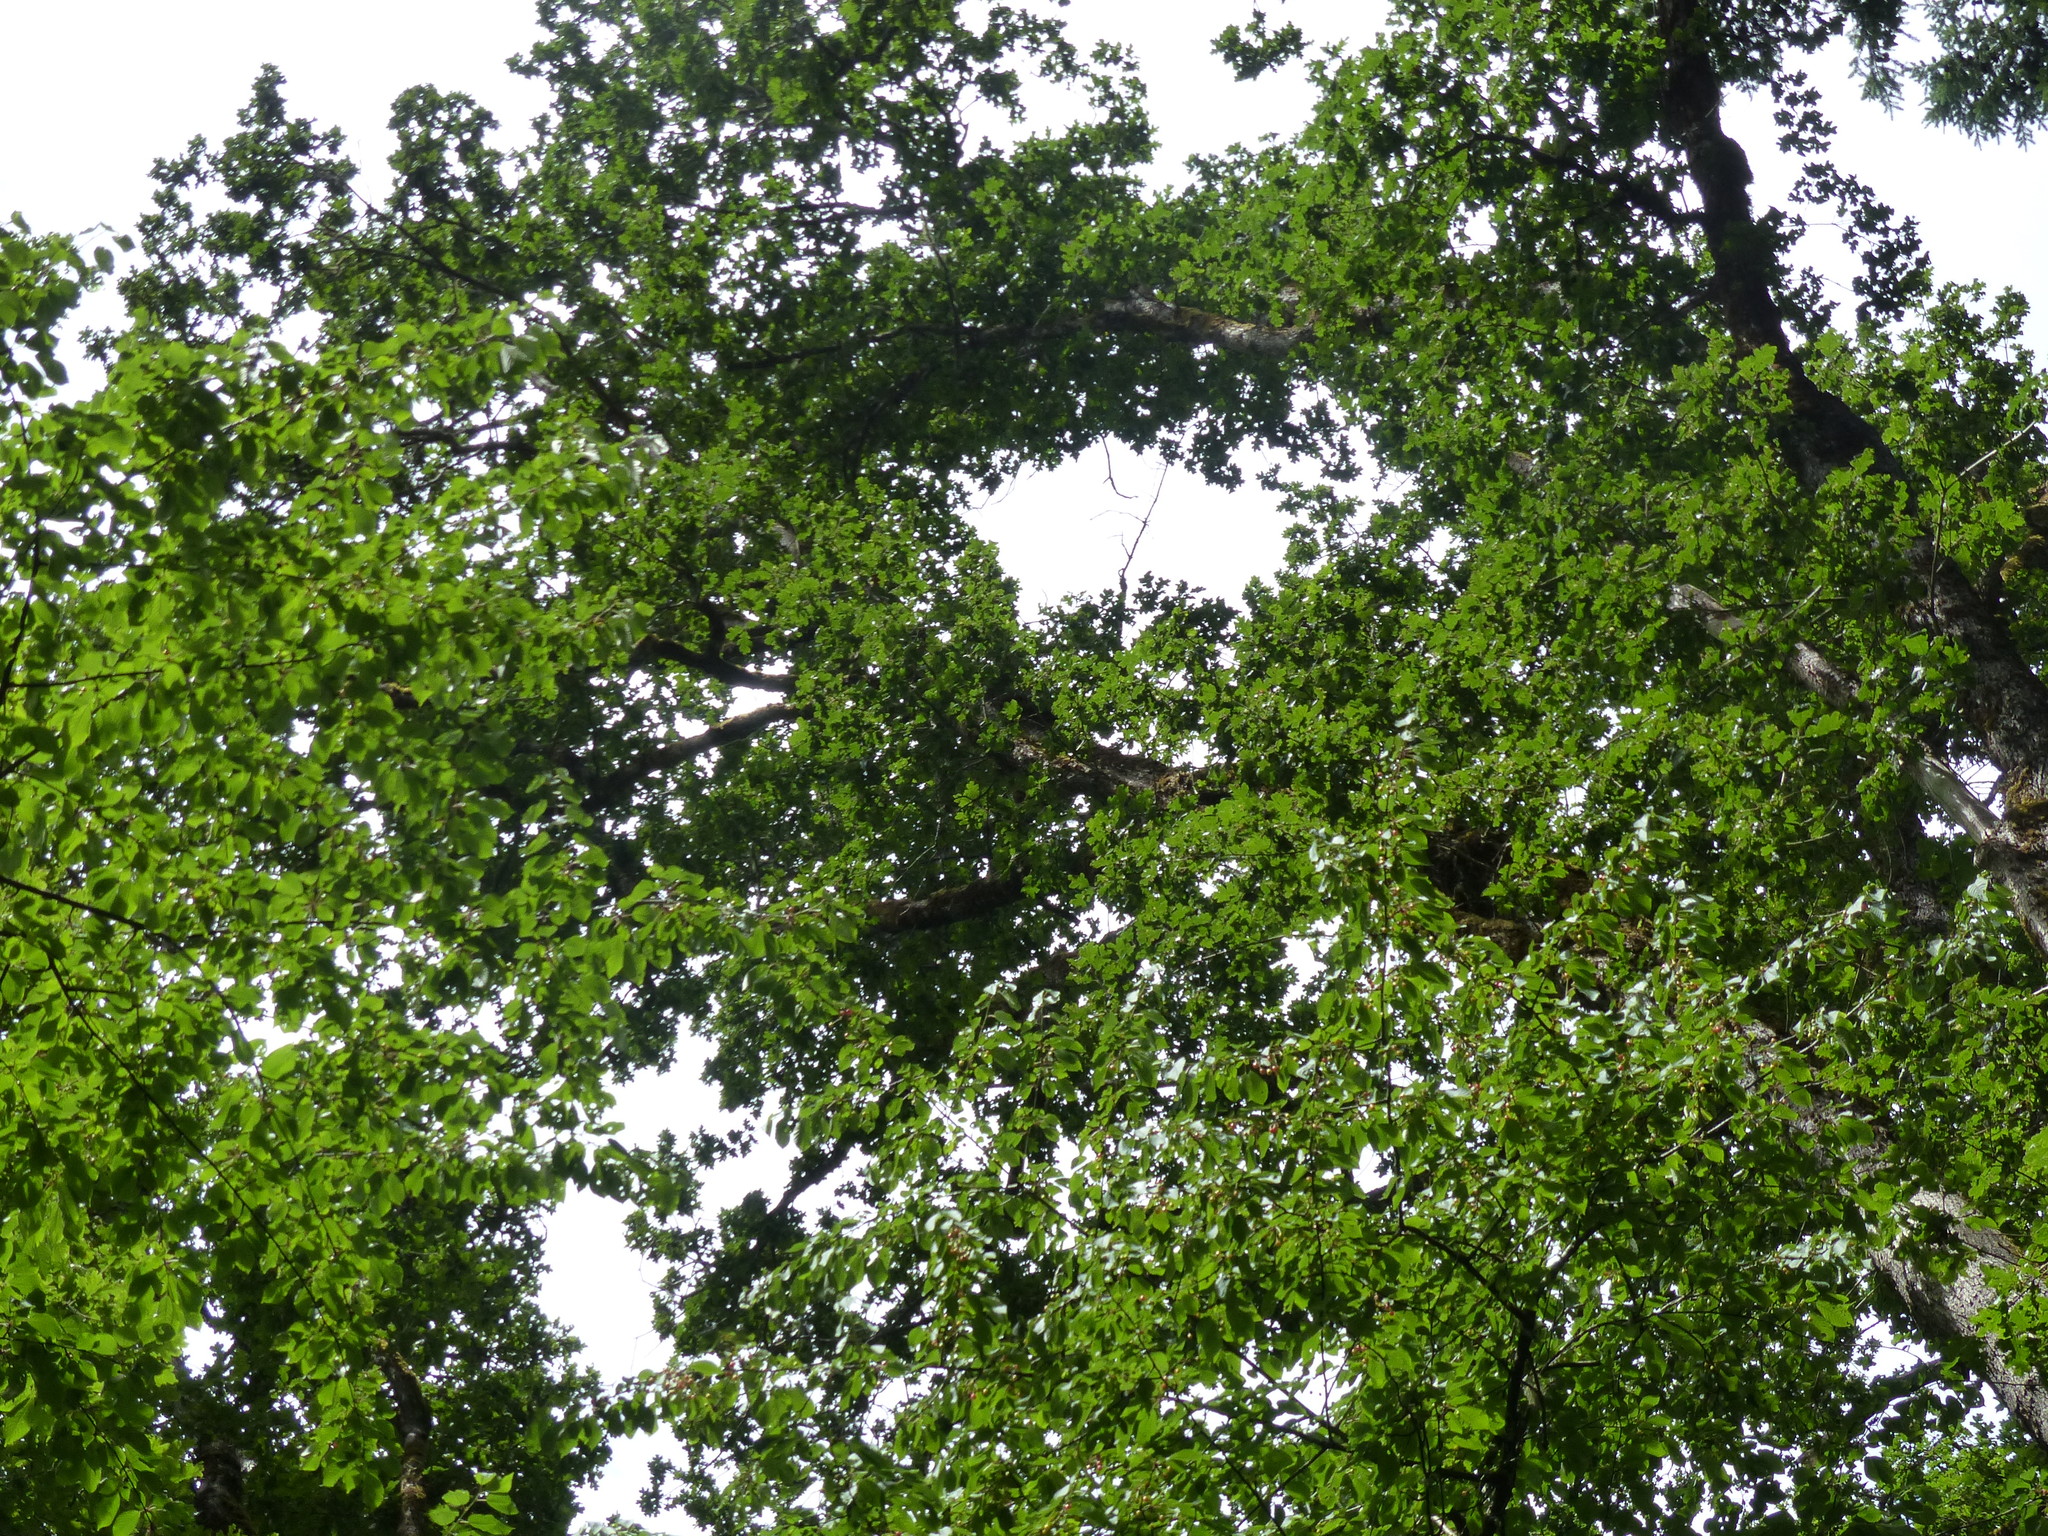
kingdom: Plantae
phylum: Tracheophyta
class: Magnoliopsida
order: Fagales
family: Fagaceae
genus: Quercus
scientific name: Quercus garryana
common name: Garry oak
